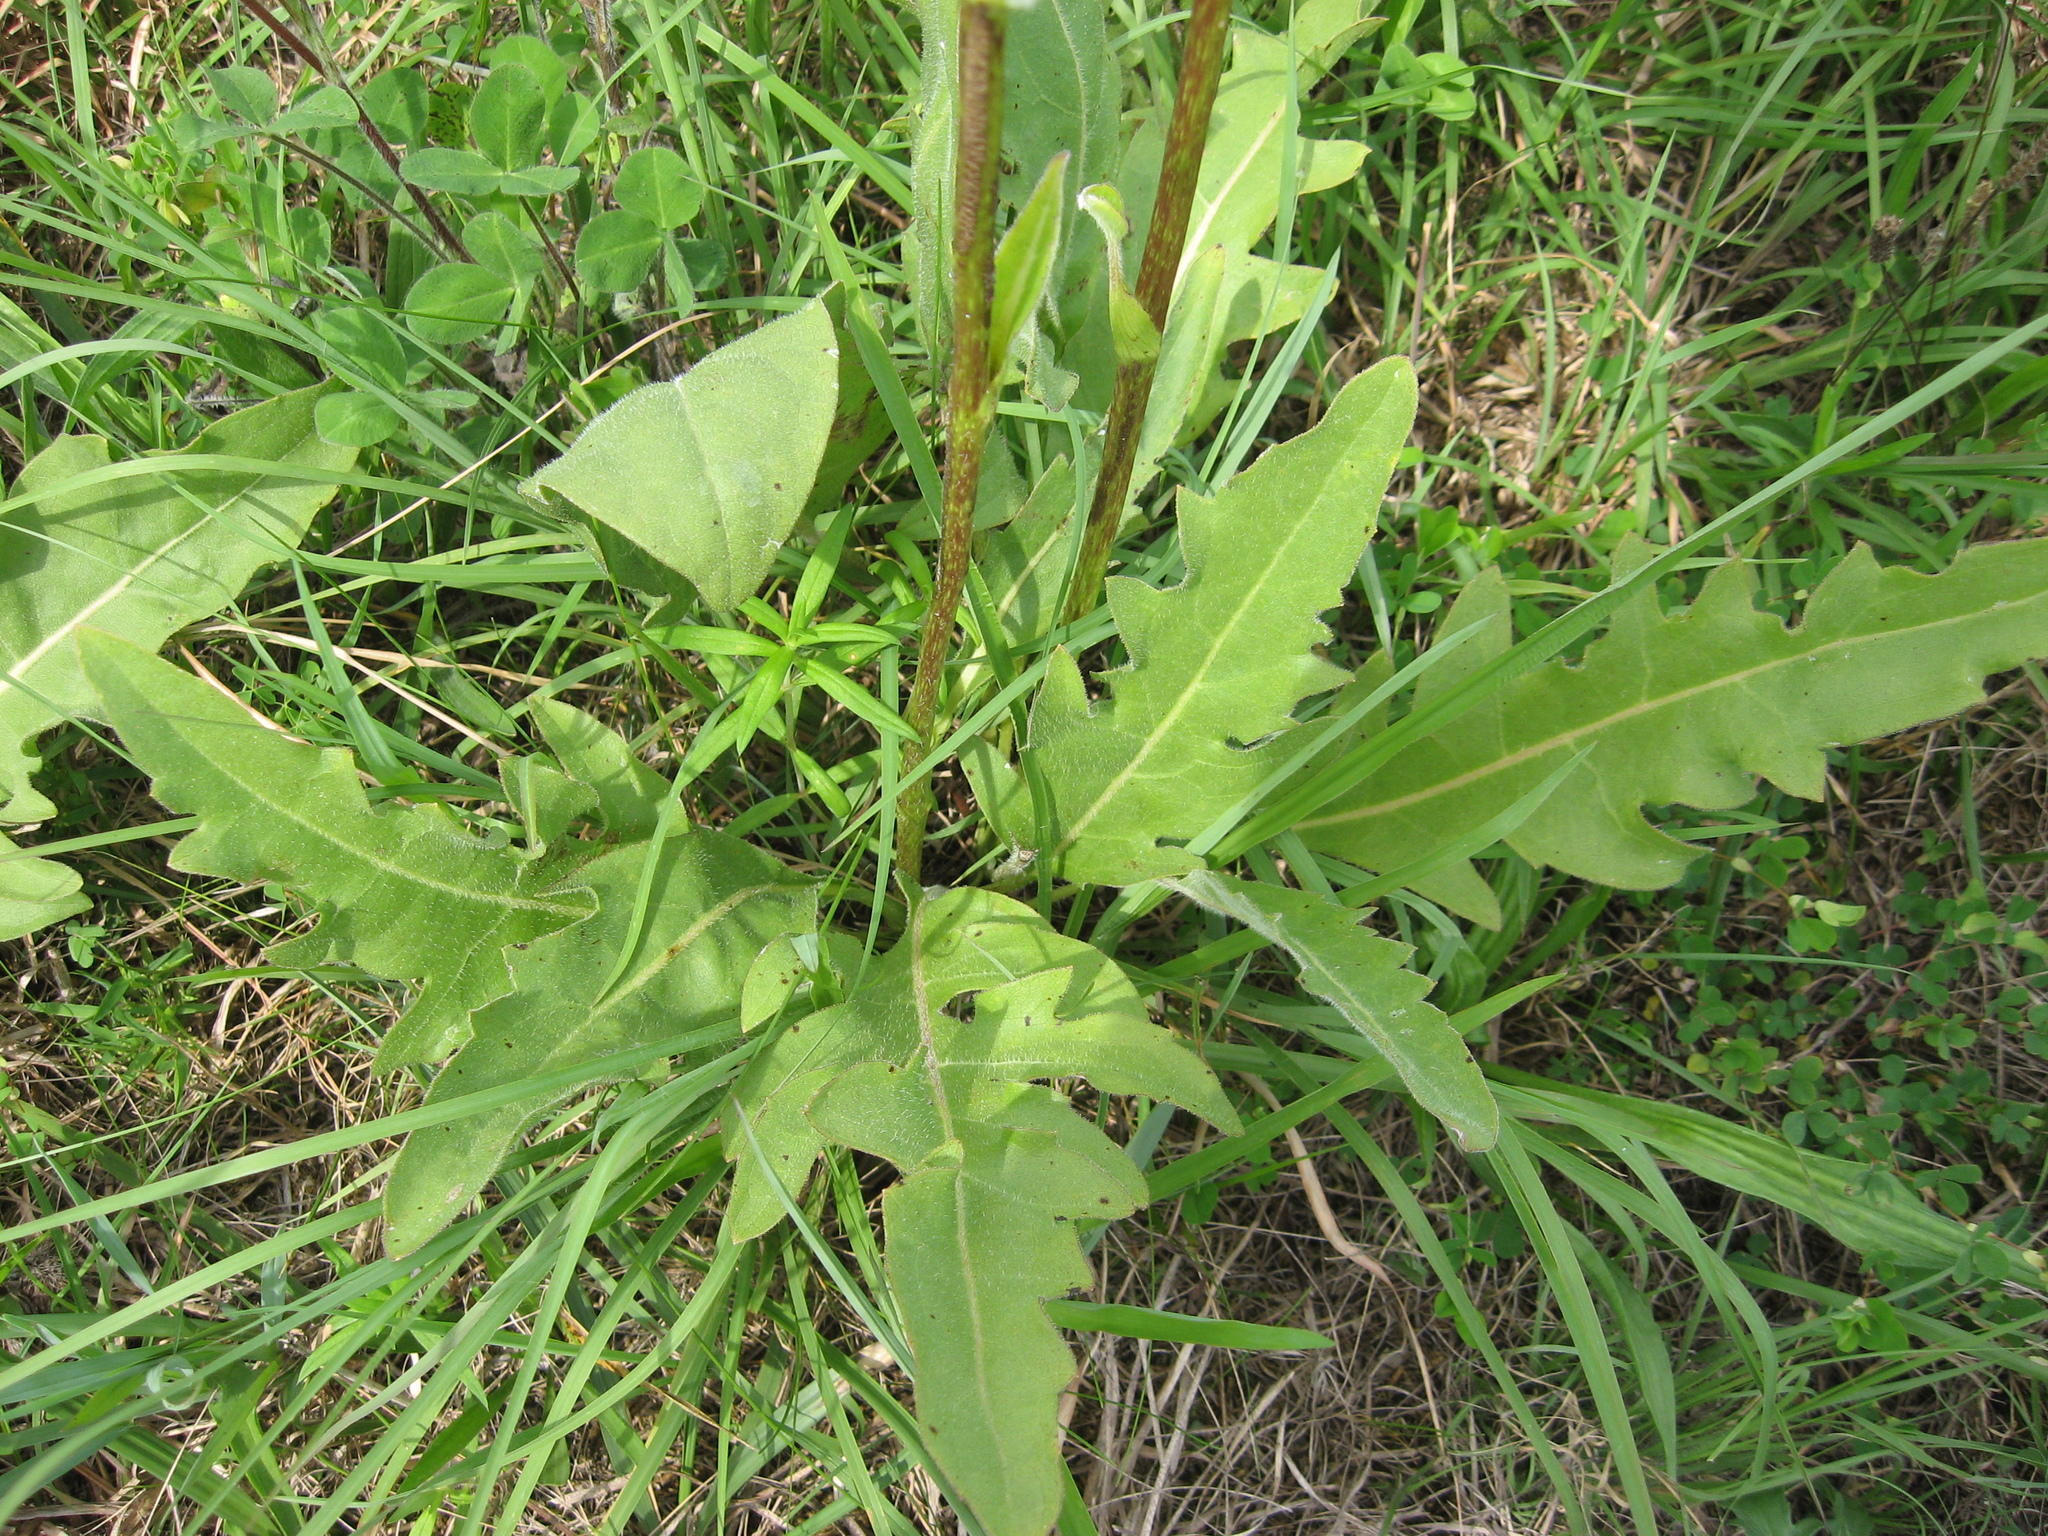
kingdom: Plantae
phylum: Tracheophyta
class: Magnoliopsida
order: Asterales
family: Asteraceae
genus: Silphium
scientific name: Silphium pinnatifidum
